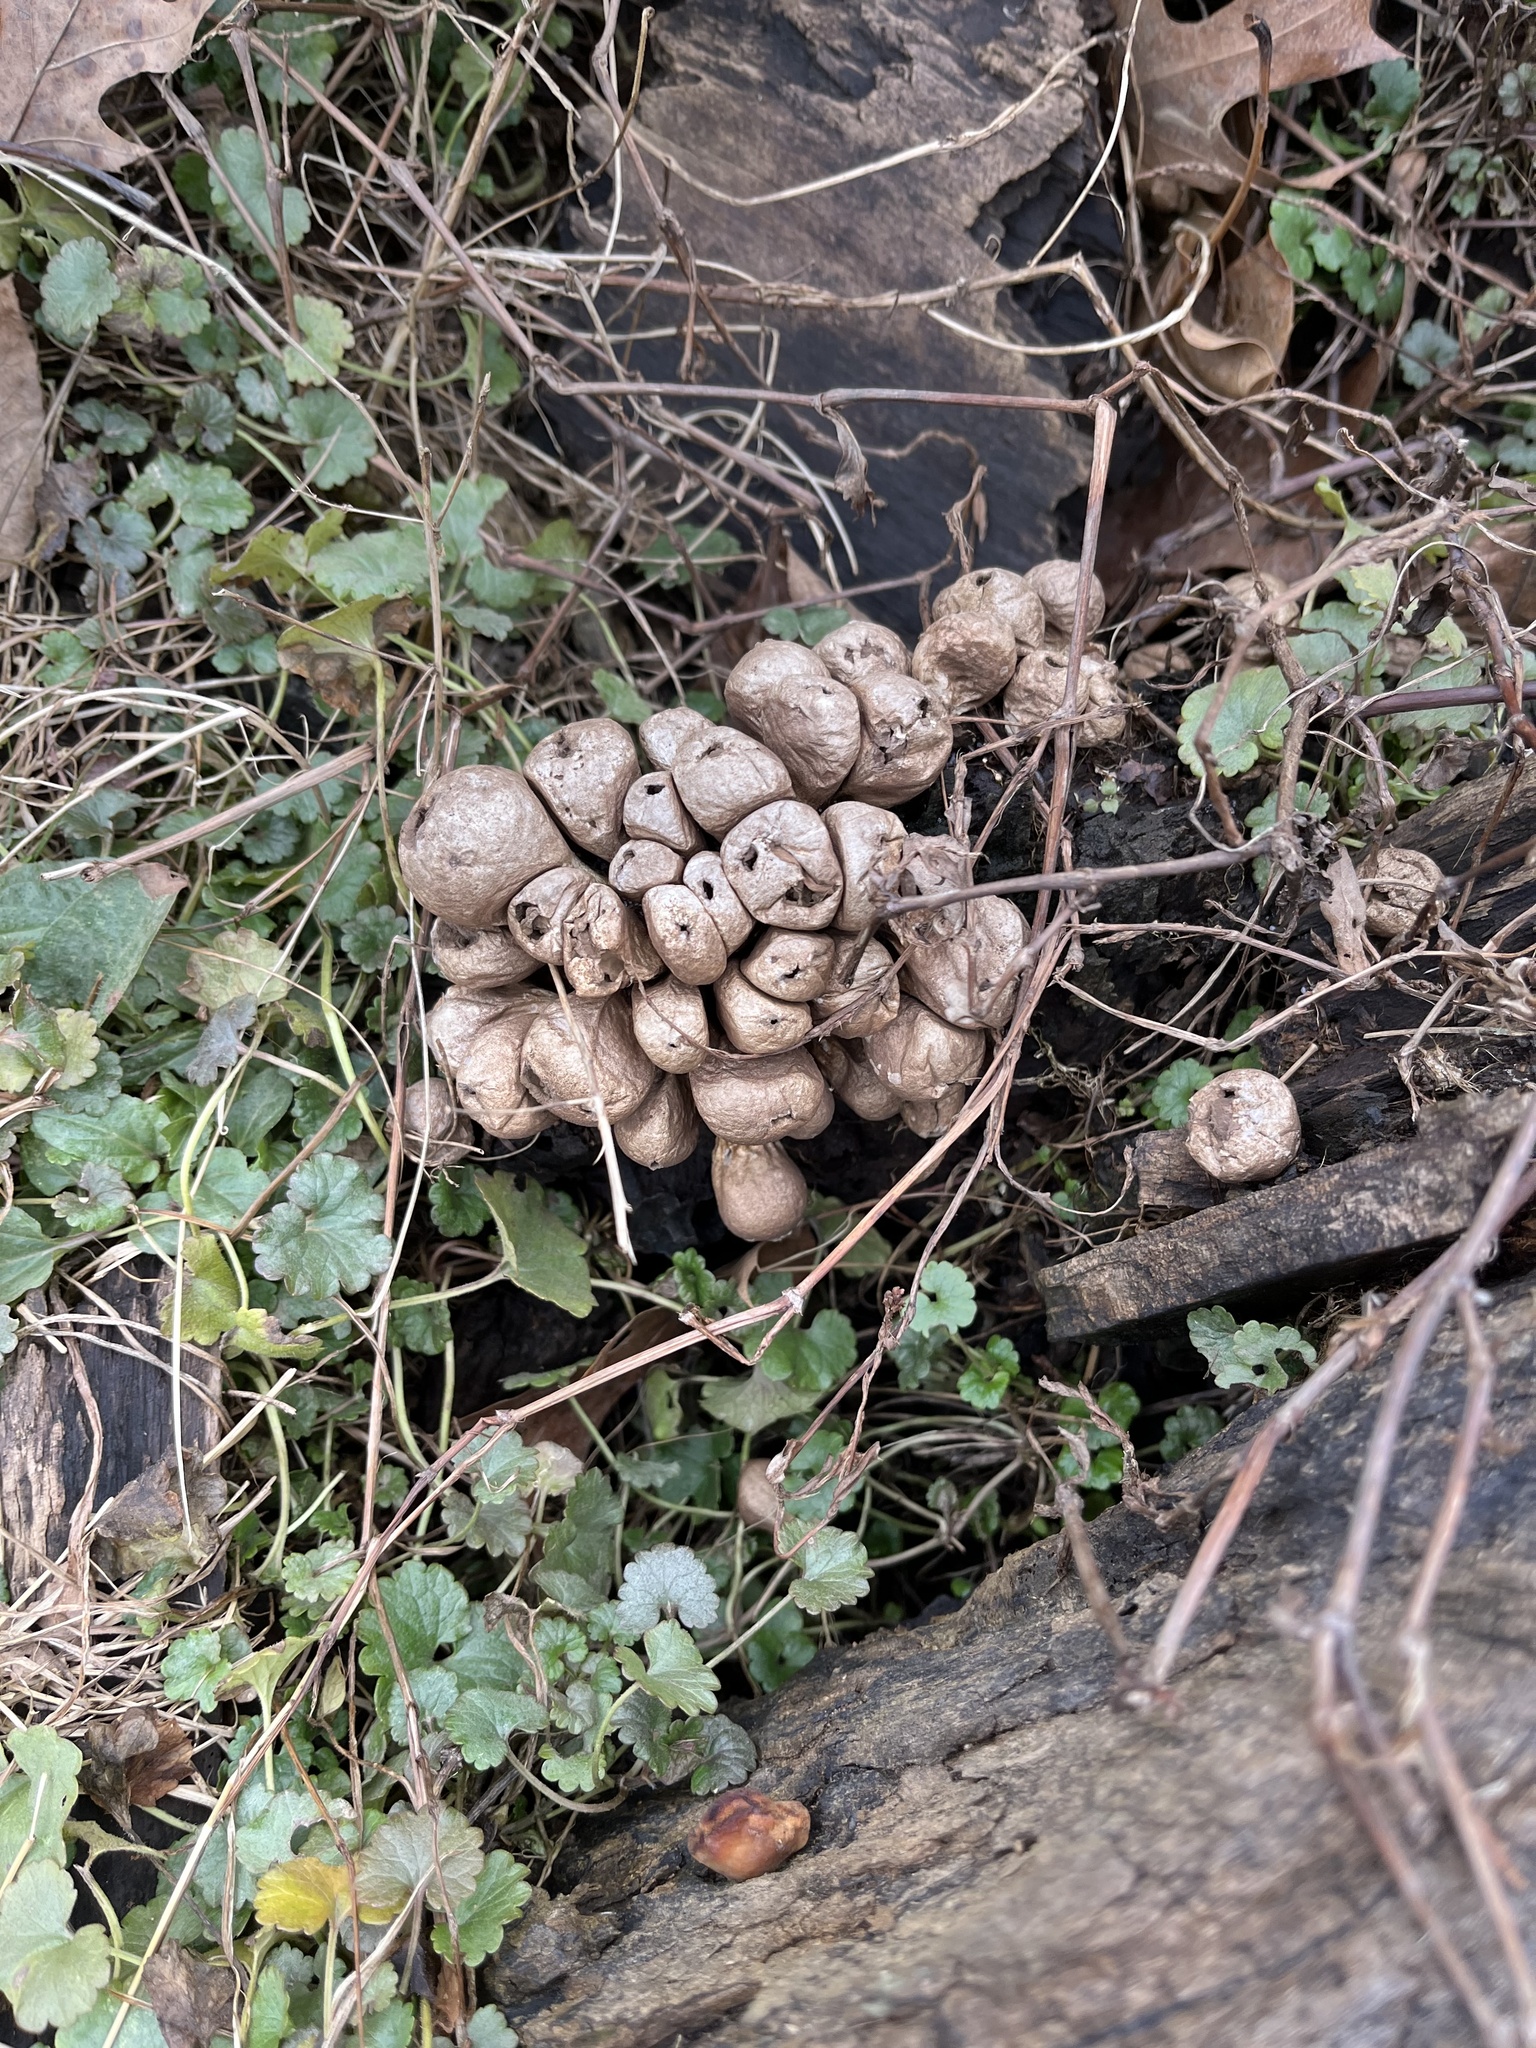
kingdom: Fungi
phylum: Basidiomycota
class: Agaricomycetes
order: Agaricales
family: Lycoperdaceae
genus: Apioperdon
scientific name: Apioperdon pyriforme
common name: Pear-shaped puffball
